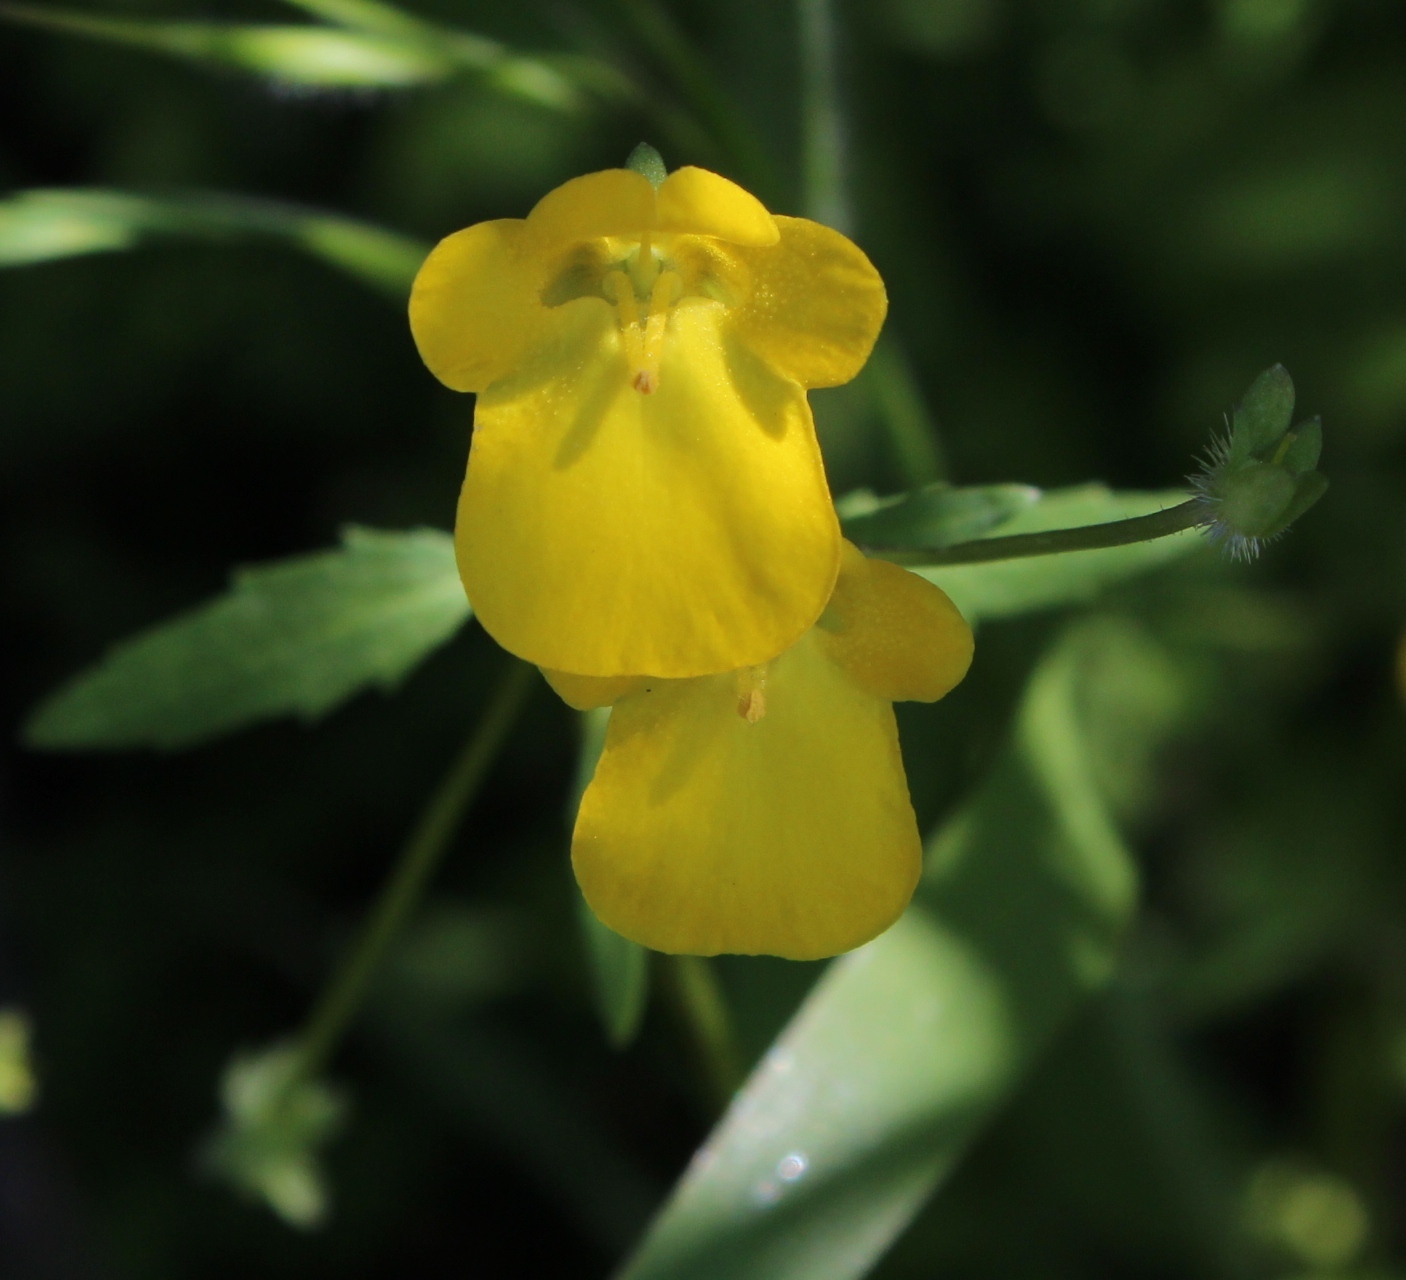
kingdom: Plantae
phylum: Tracheophyta
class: Magnoliopsida
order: Lamiales
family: Scrophulariaceae
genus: Hemimeris
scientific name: Hemimeris racemosa
